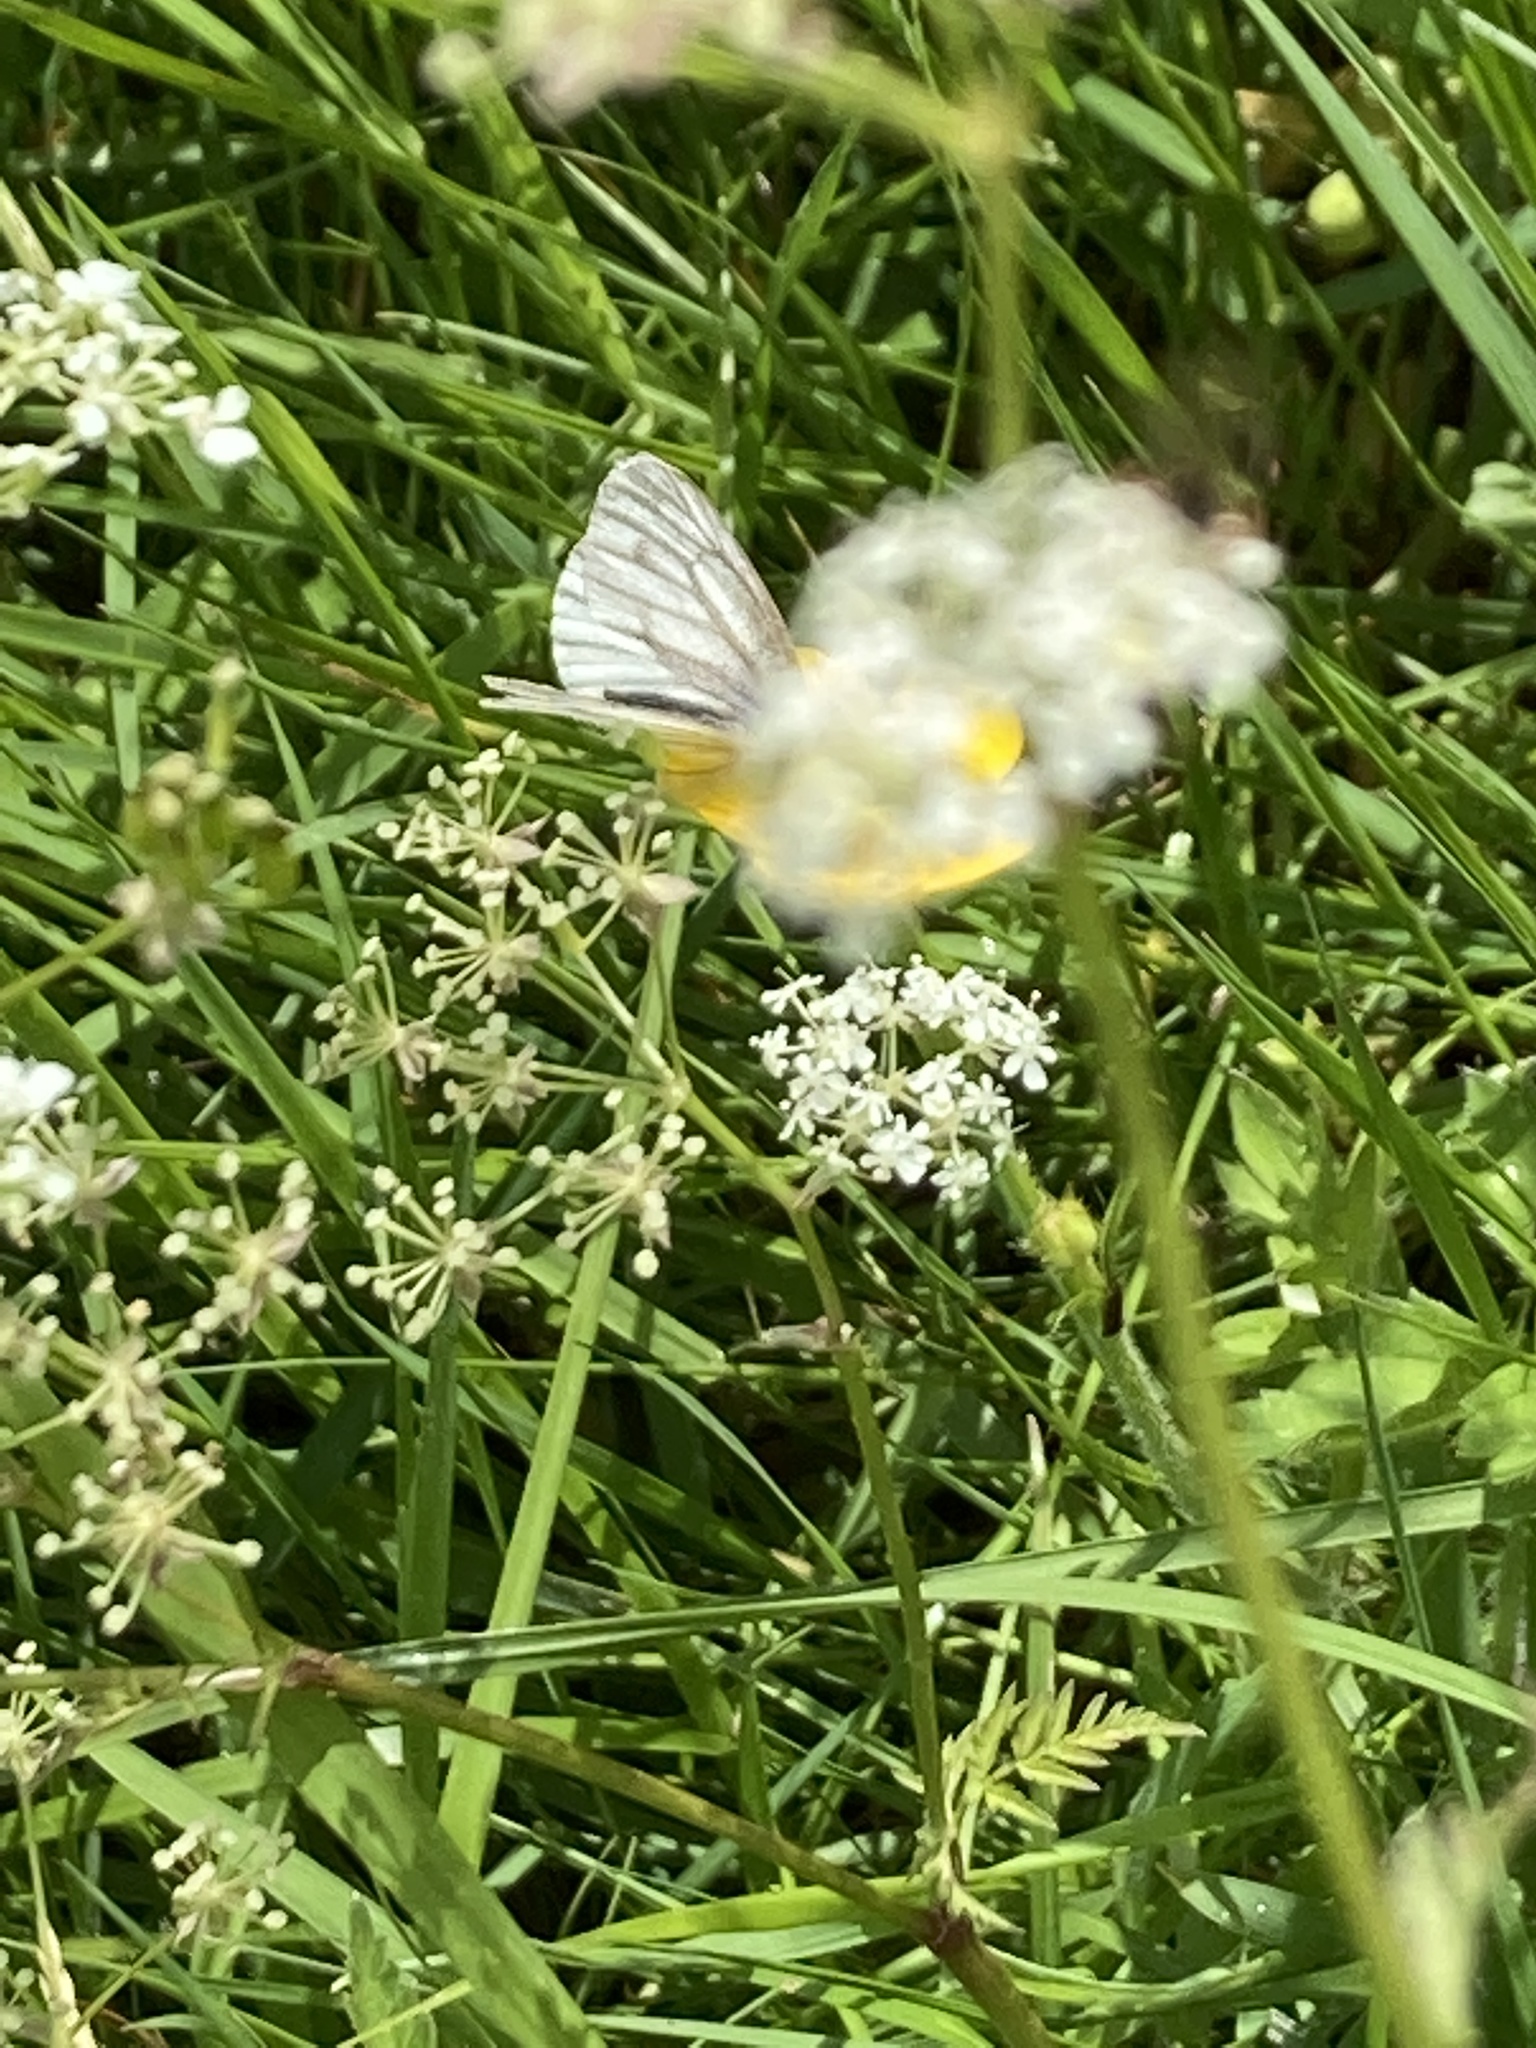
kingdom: Animalia
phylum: Arthropoda
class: Insecta
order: Lepidoptera
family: Pieridae
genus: Pieris
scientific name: Pieris napi
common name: Green-veined white
